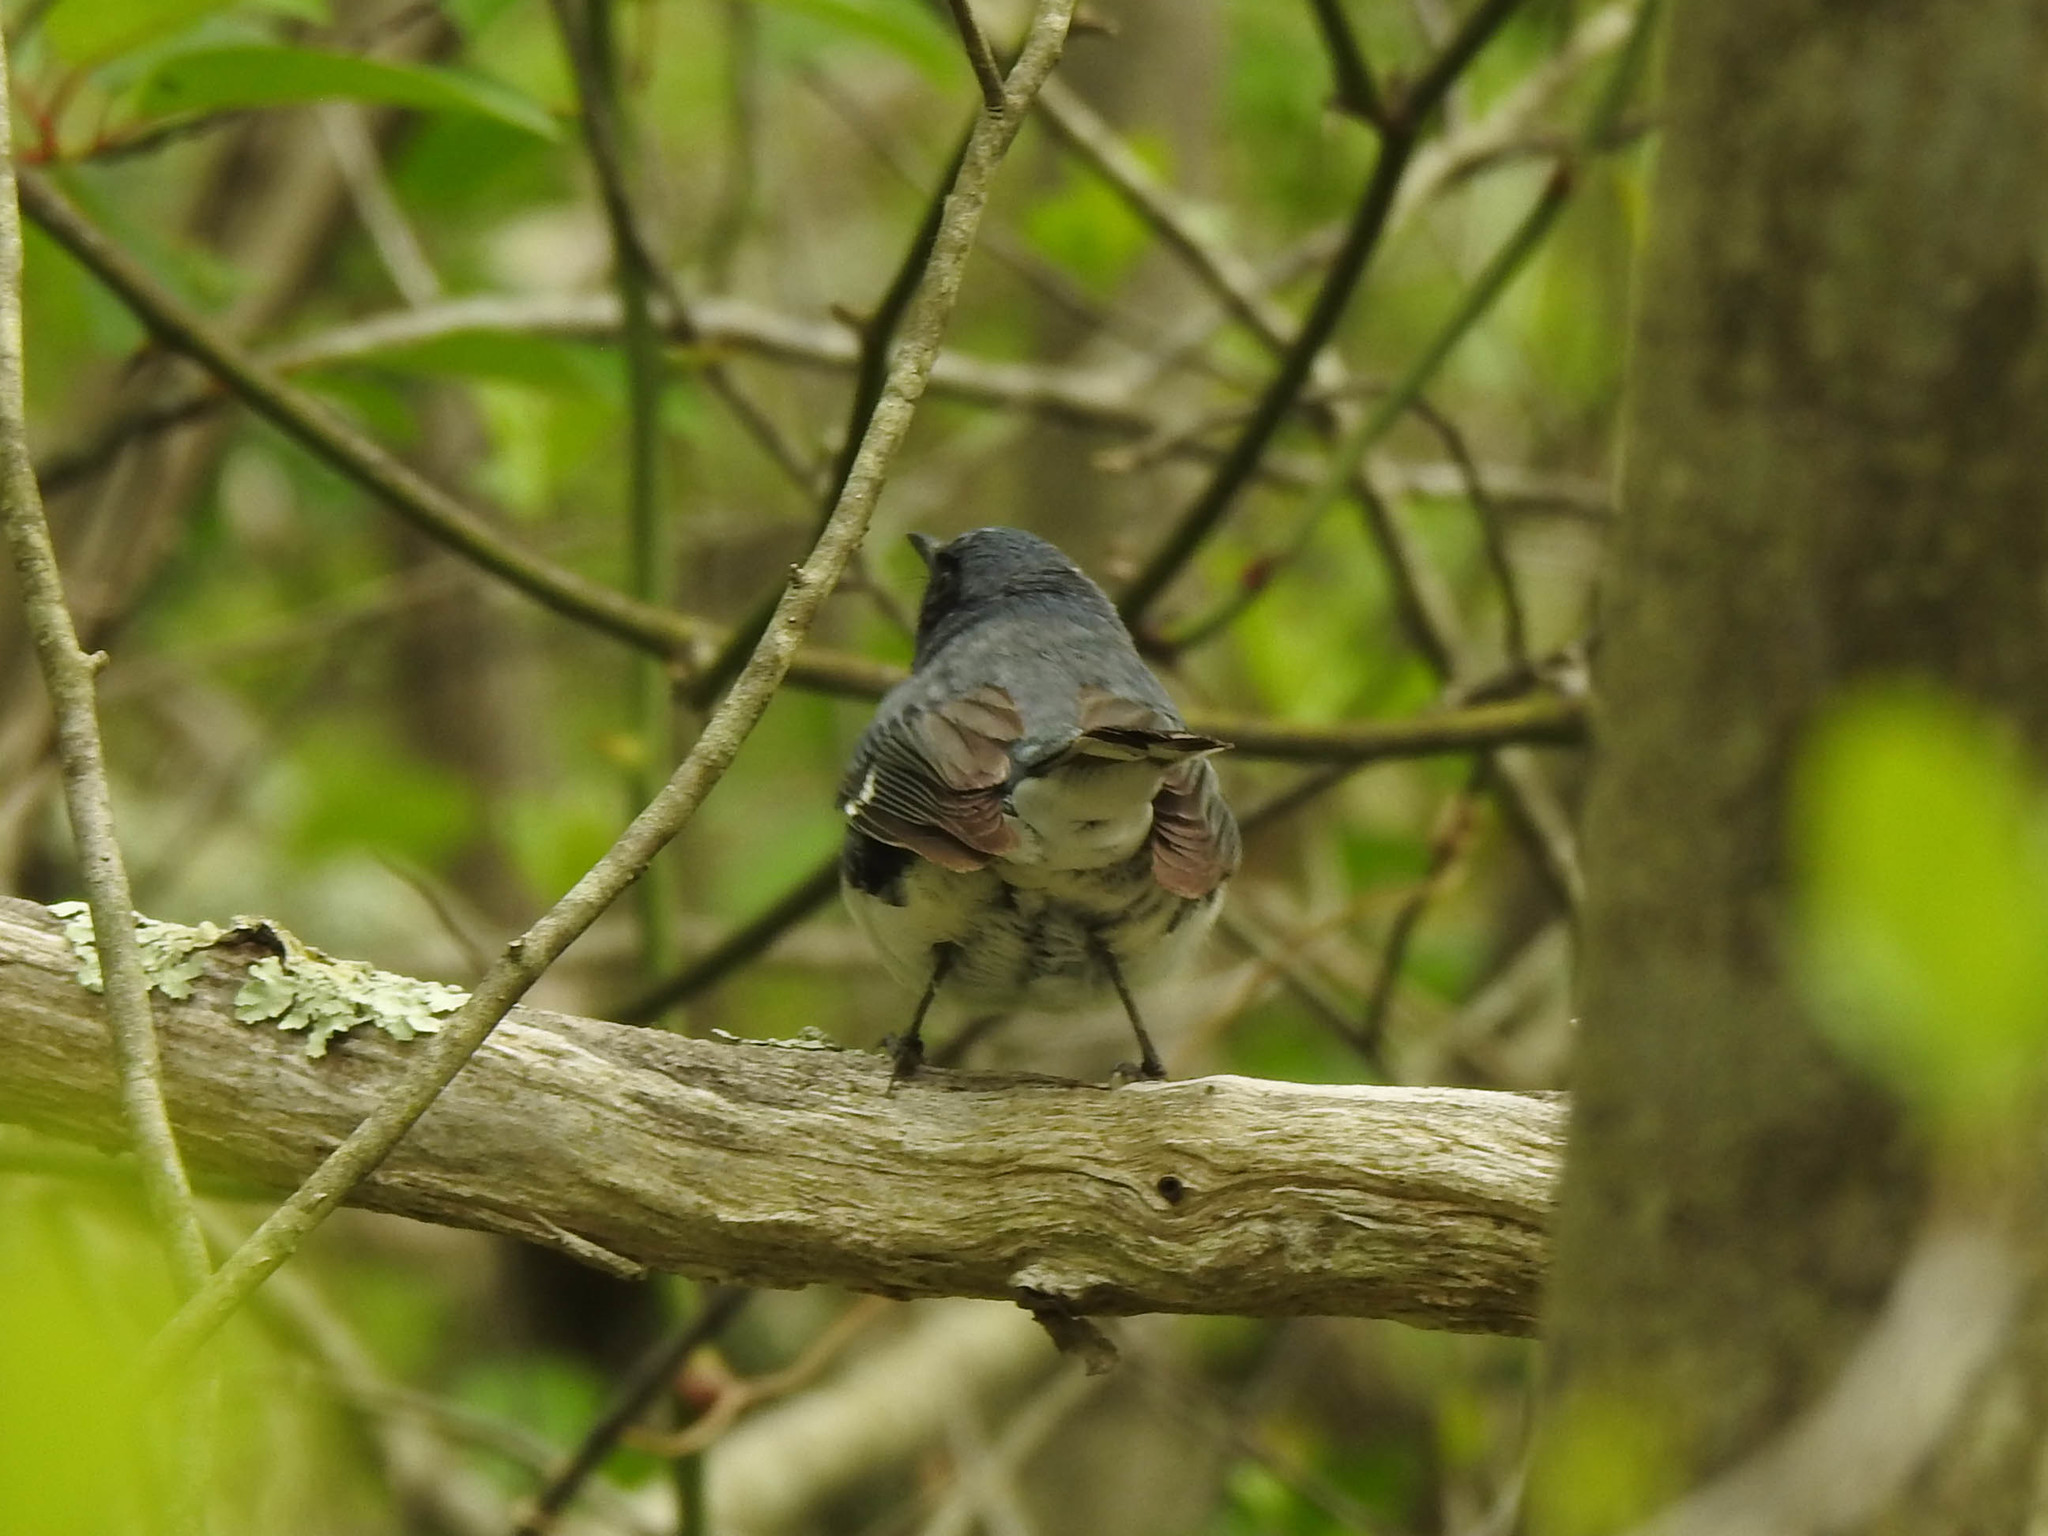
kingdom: Animalia
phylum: Chordata
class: Aves
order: Passeriformes
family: Parulidae
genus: Setophaga
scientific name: Setophaga caerulescens
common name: Black-throated blue warbler
